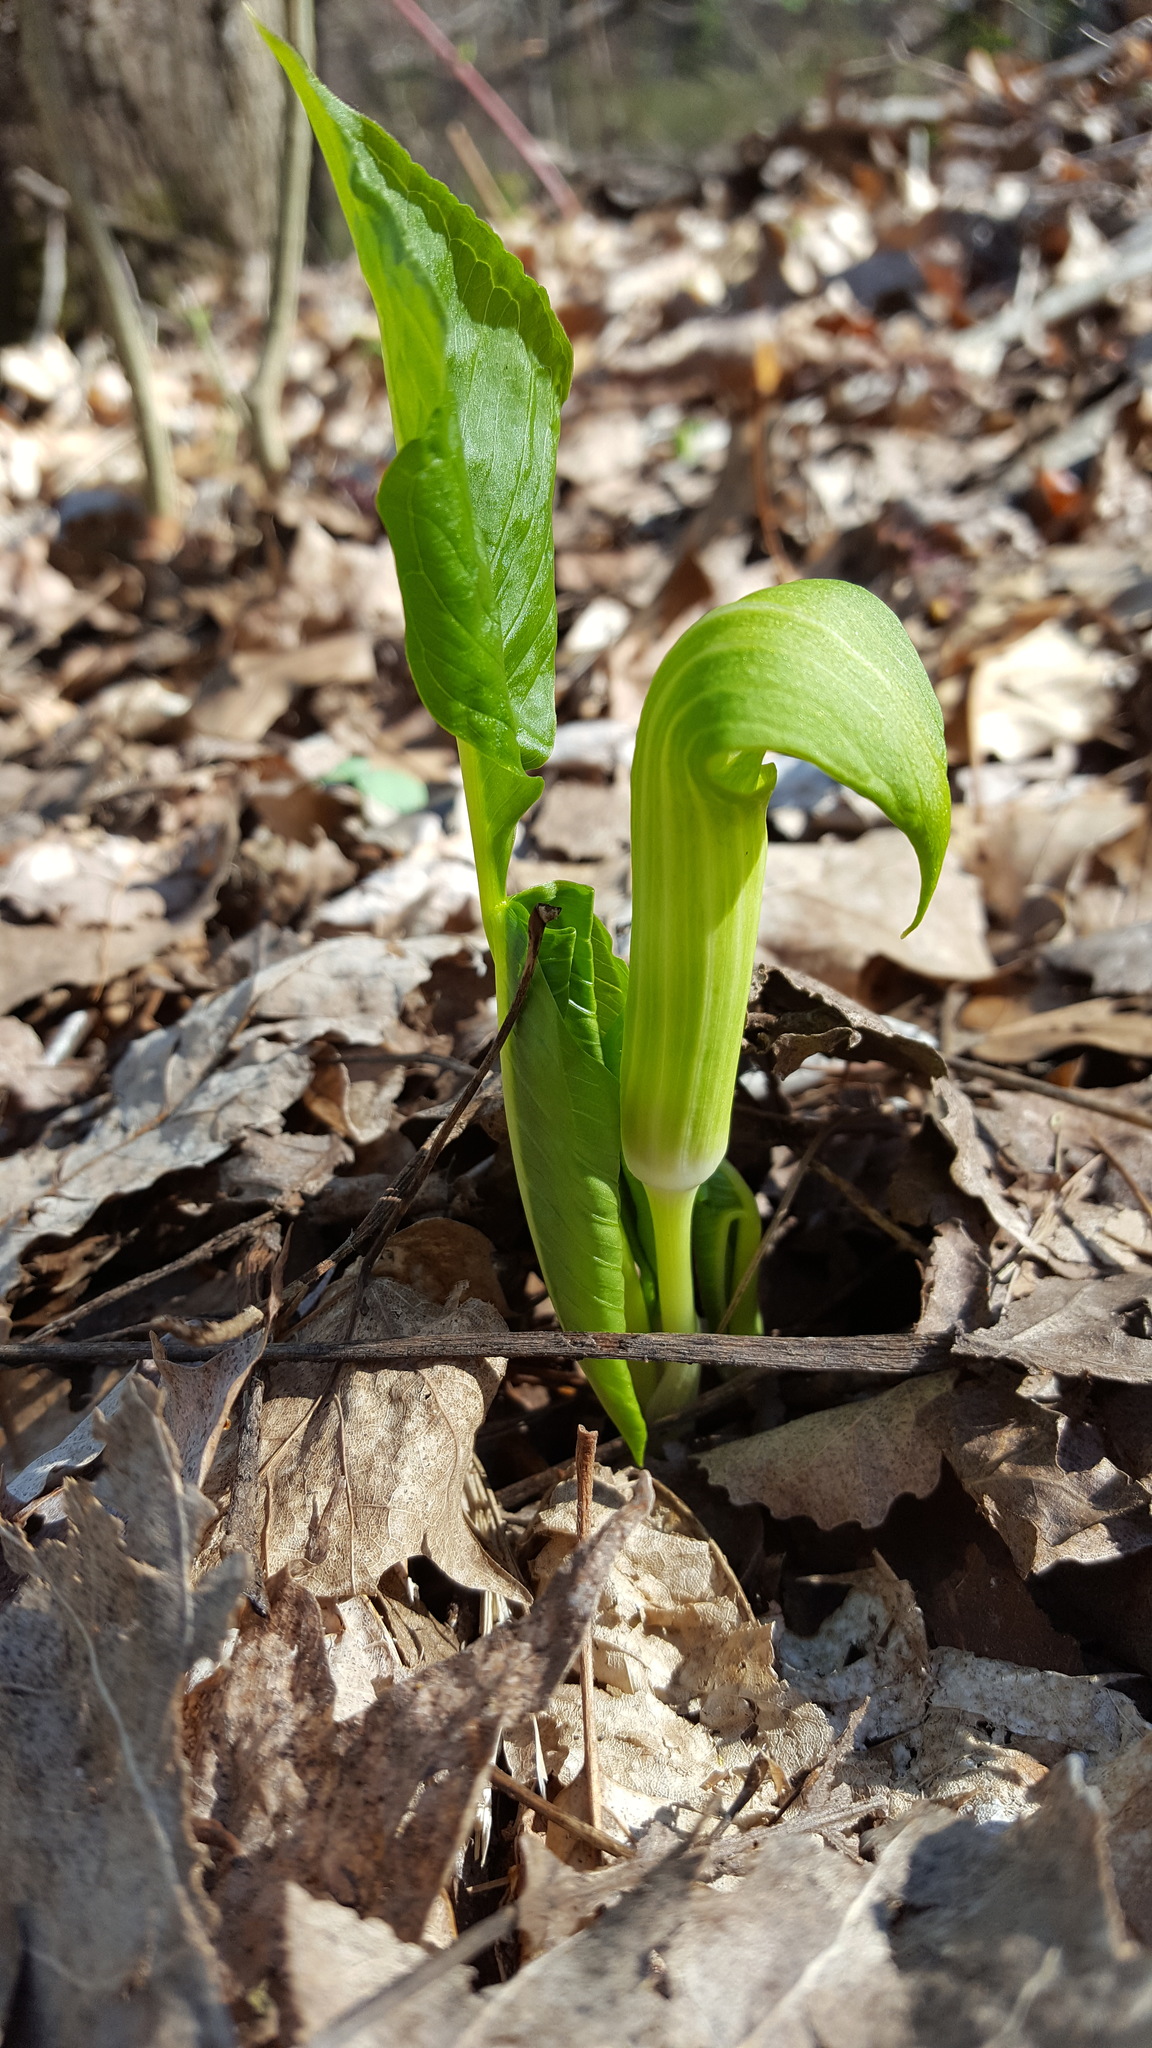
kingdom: Plantae
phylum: Tracheophyta
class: Liliopsida
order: Alismatales
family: Araceae
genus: Arisaema
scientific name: Arisaema triphyllum
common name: Jack-in-the-pulpit
